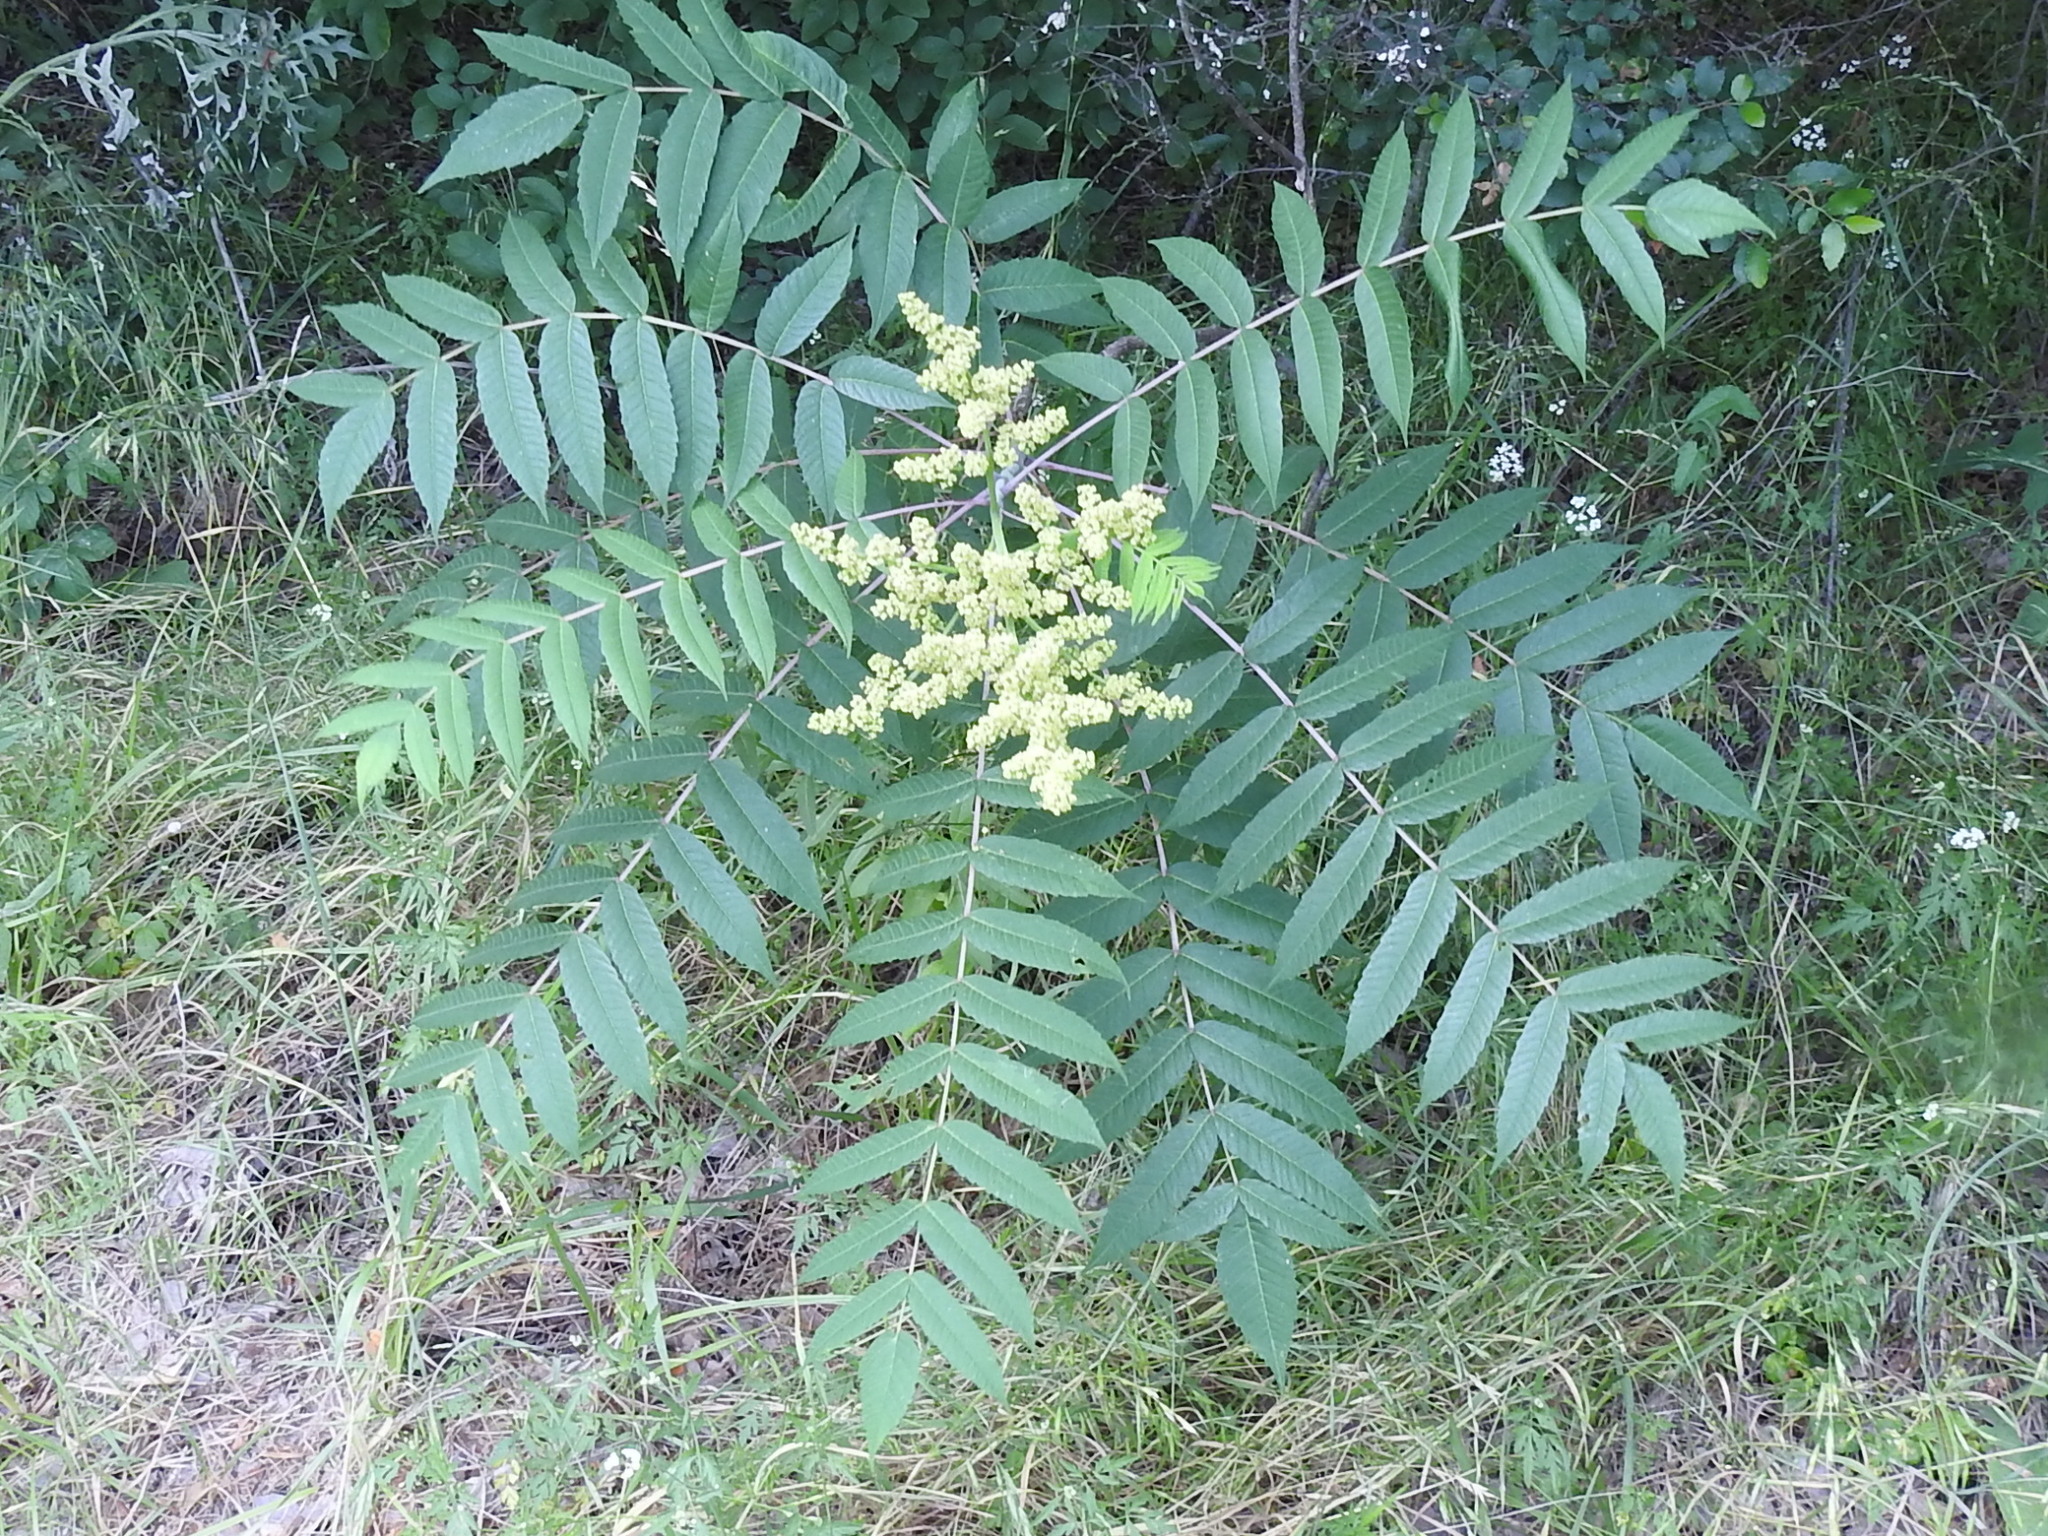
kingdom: Plantae
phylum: Tracheophyta
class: Magnoliopsida
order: Sapindales
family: Anacardiaceae
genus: Rhus
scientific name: Rhus glabra
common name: Scarlet sumac
